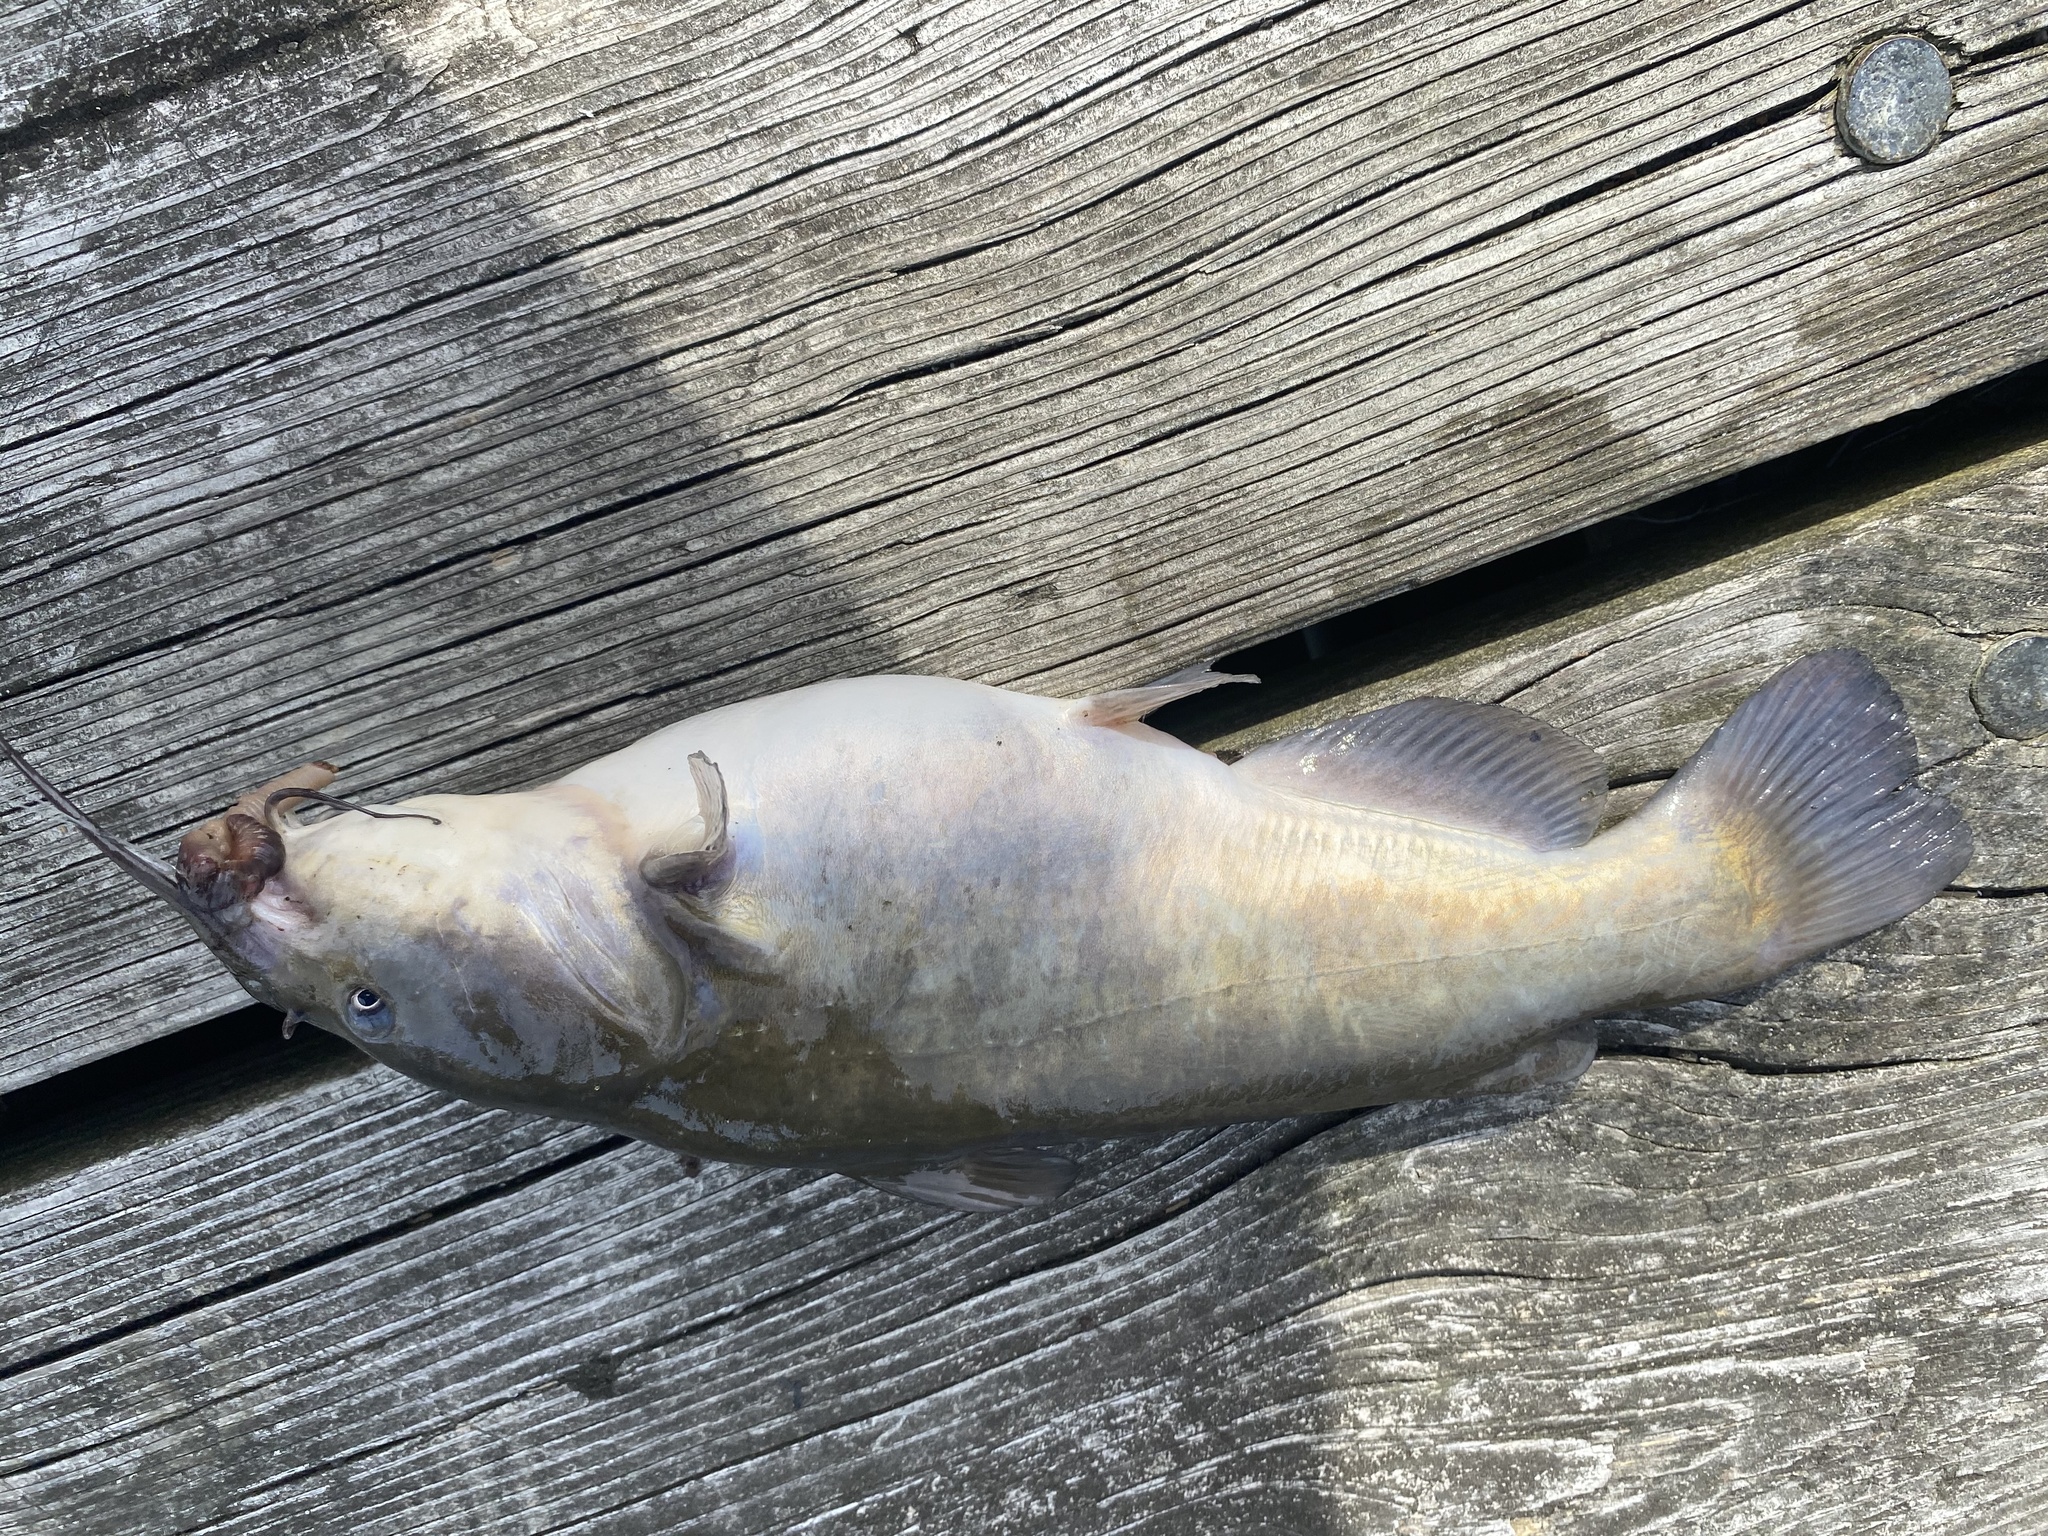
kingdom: Animalia
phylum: Chordata
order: Siluriformes
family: Ictaluridae
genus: Ameiurus
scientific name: Ameiurus nebulosus
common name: Brown bullhead
